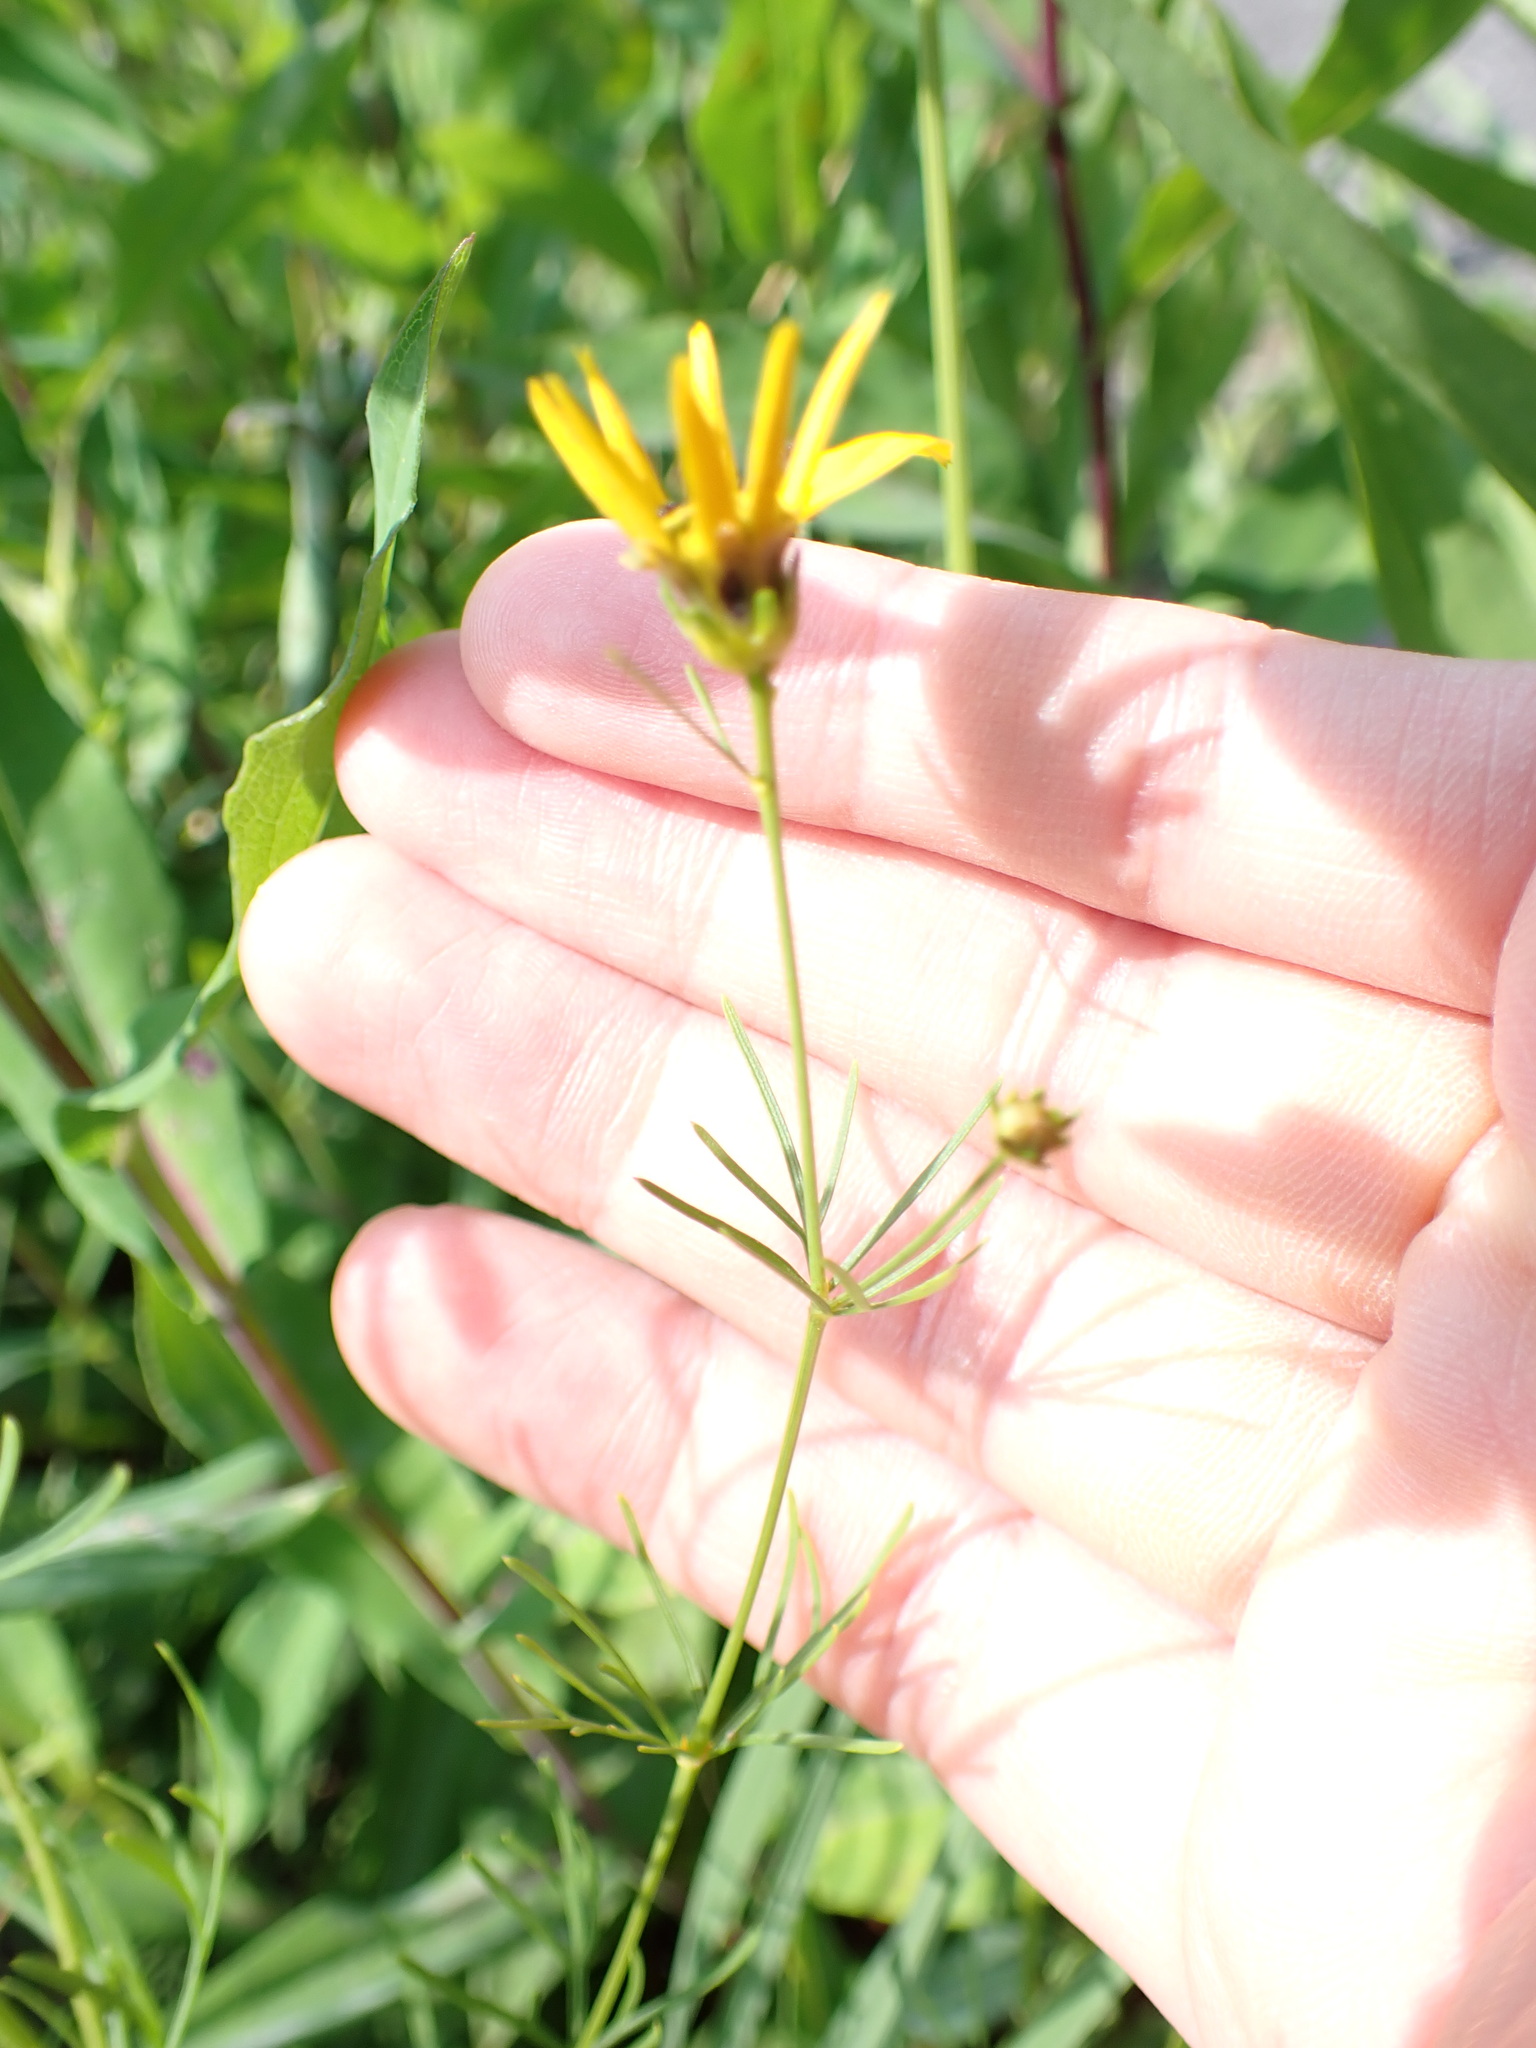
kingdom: Plantae
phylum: Tracheophyta
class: Magnoliopsida
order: Asterales
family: Asteraceae
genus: Coreopsis
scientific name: Coreopsis verticillata
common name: Whorled tickseed
